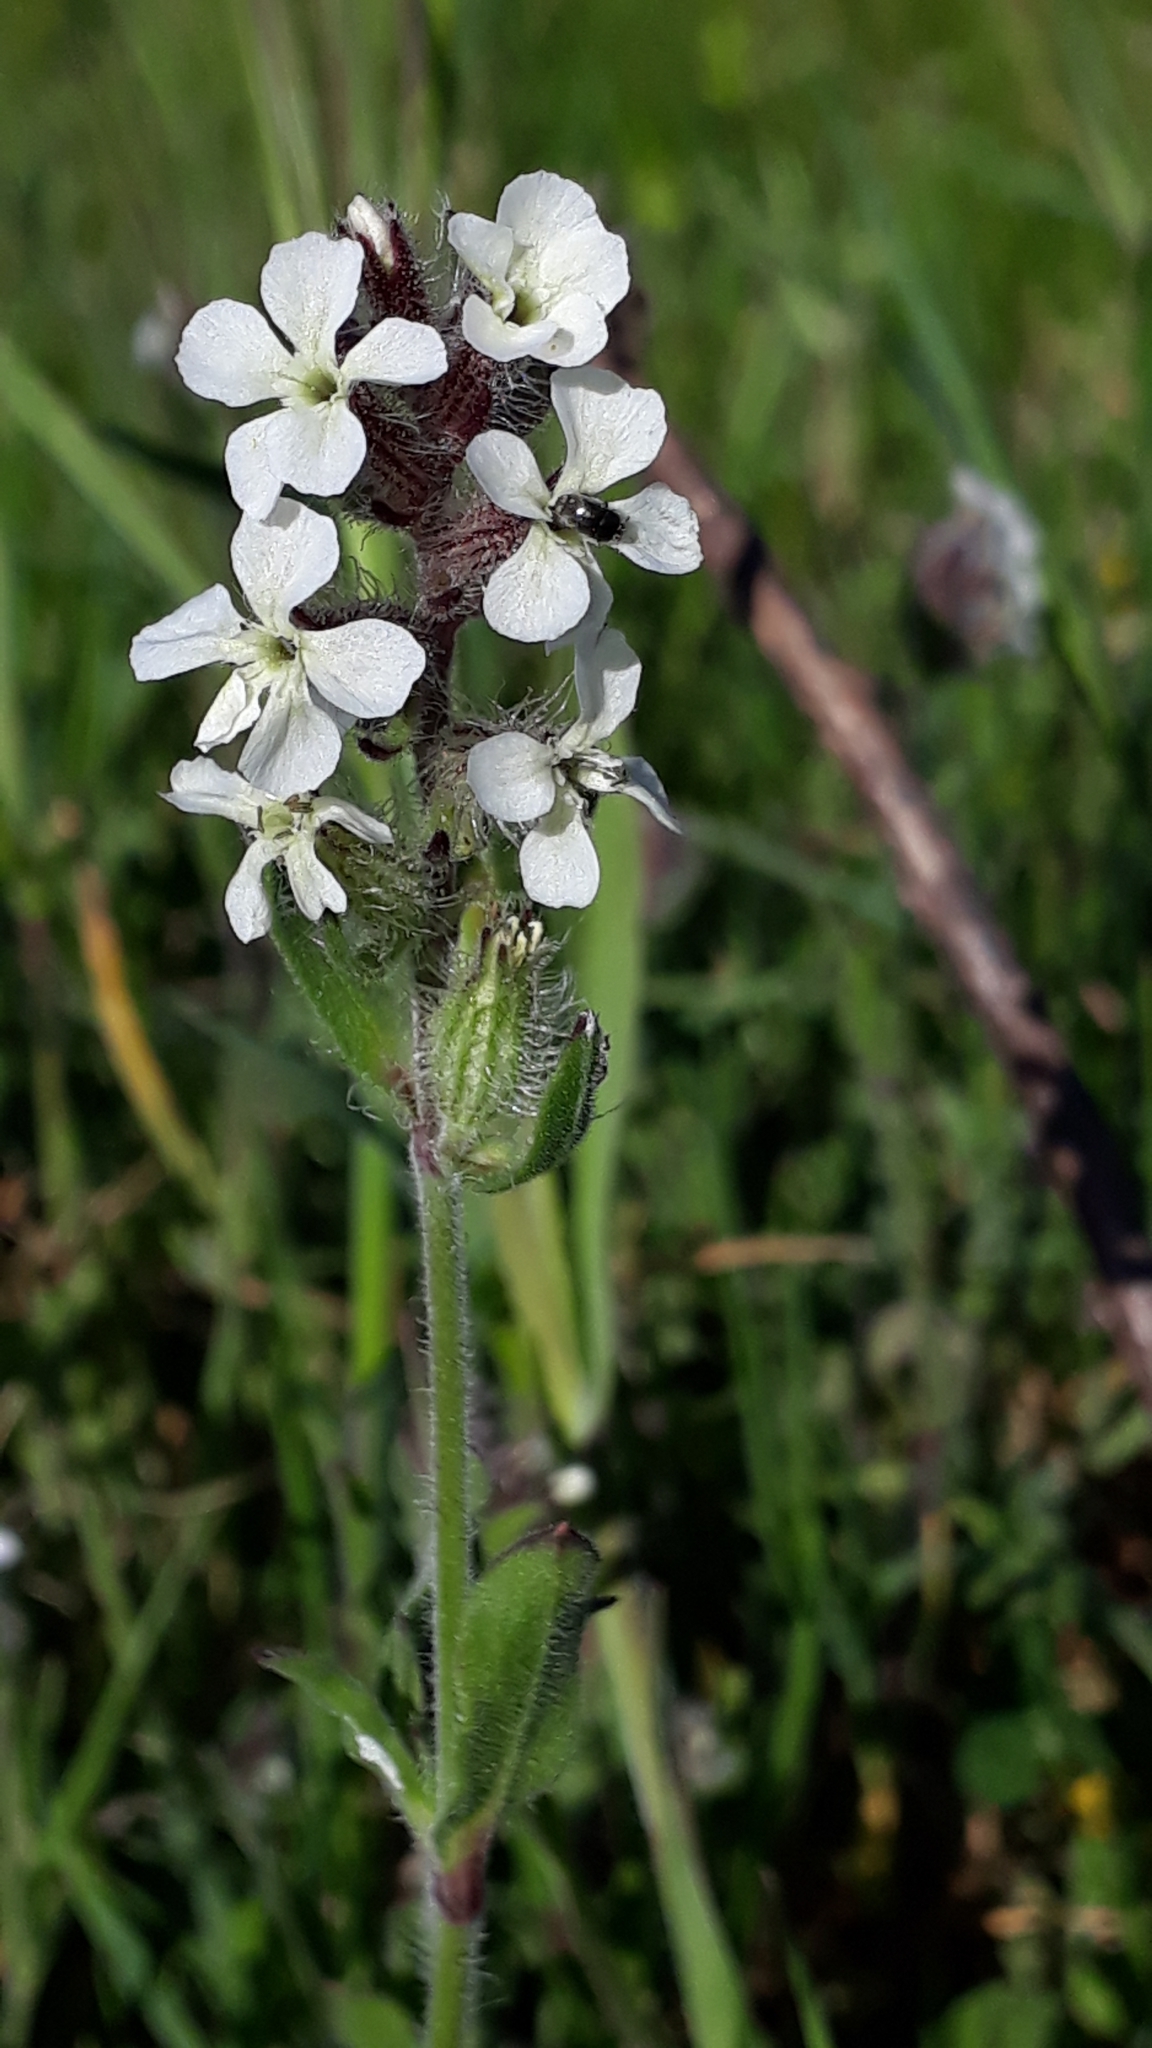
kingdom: Plantae
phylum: Tracheophyta
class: Magnoliopsida
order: Caryophyllales
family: Caryophyllaceae
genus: Silene
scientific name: Silene gallica
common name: Small-flowered catchfly
